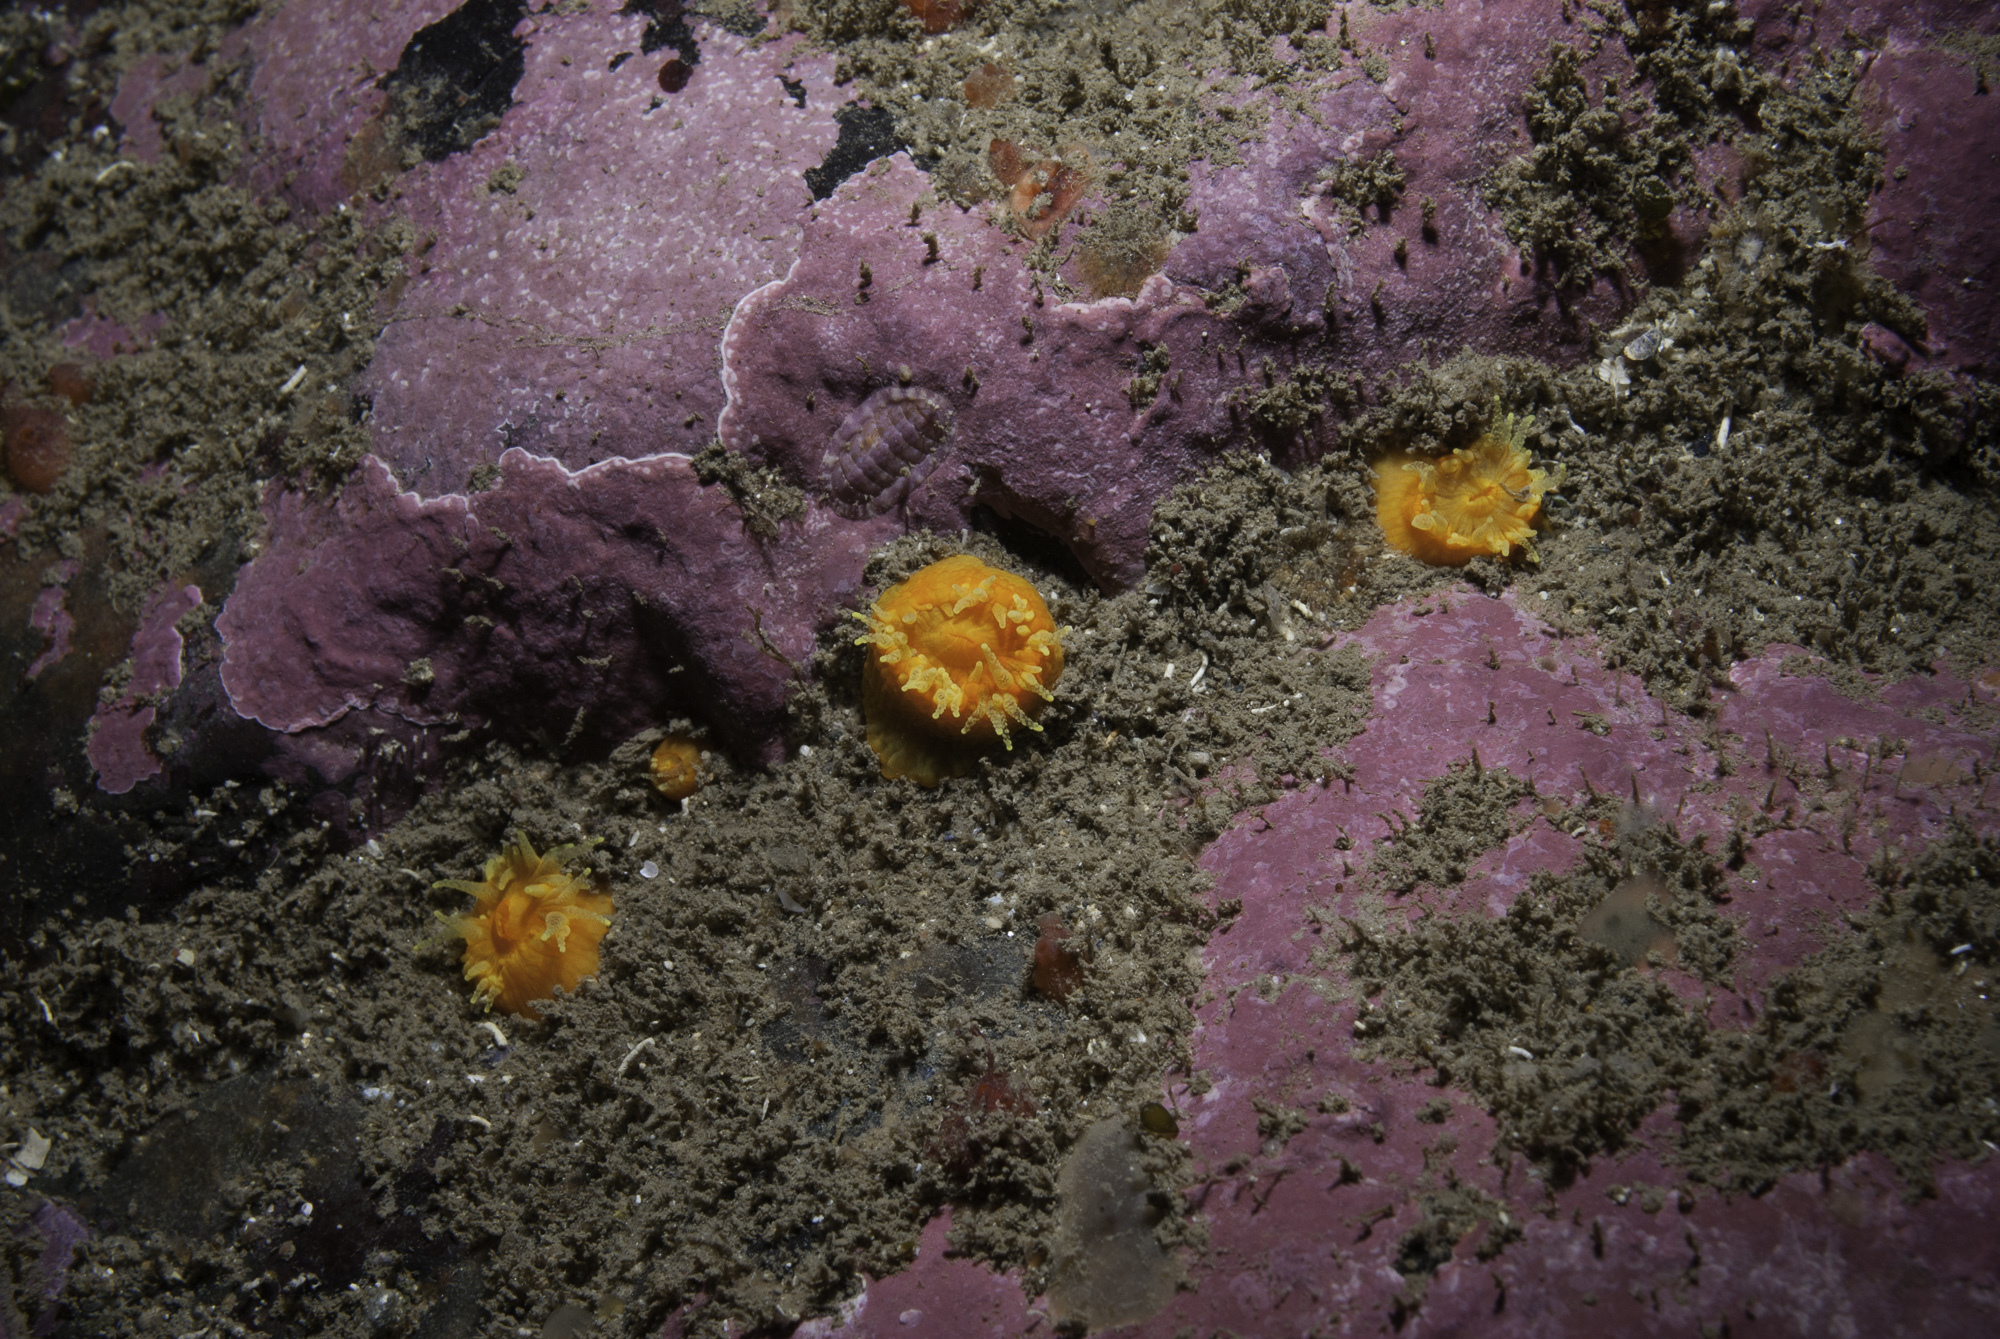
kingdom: Animalia
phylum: Cnidaria
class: Anthozoa
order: Scleractinia
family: Dendrophylliidae
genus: Balanophyllia
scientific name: Balanophyllia regia
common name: Golden star coral
